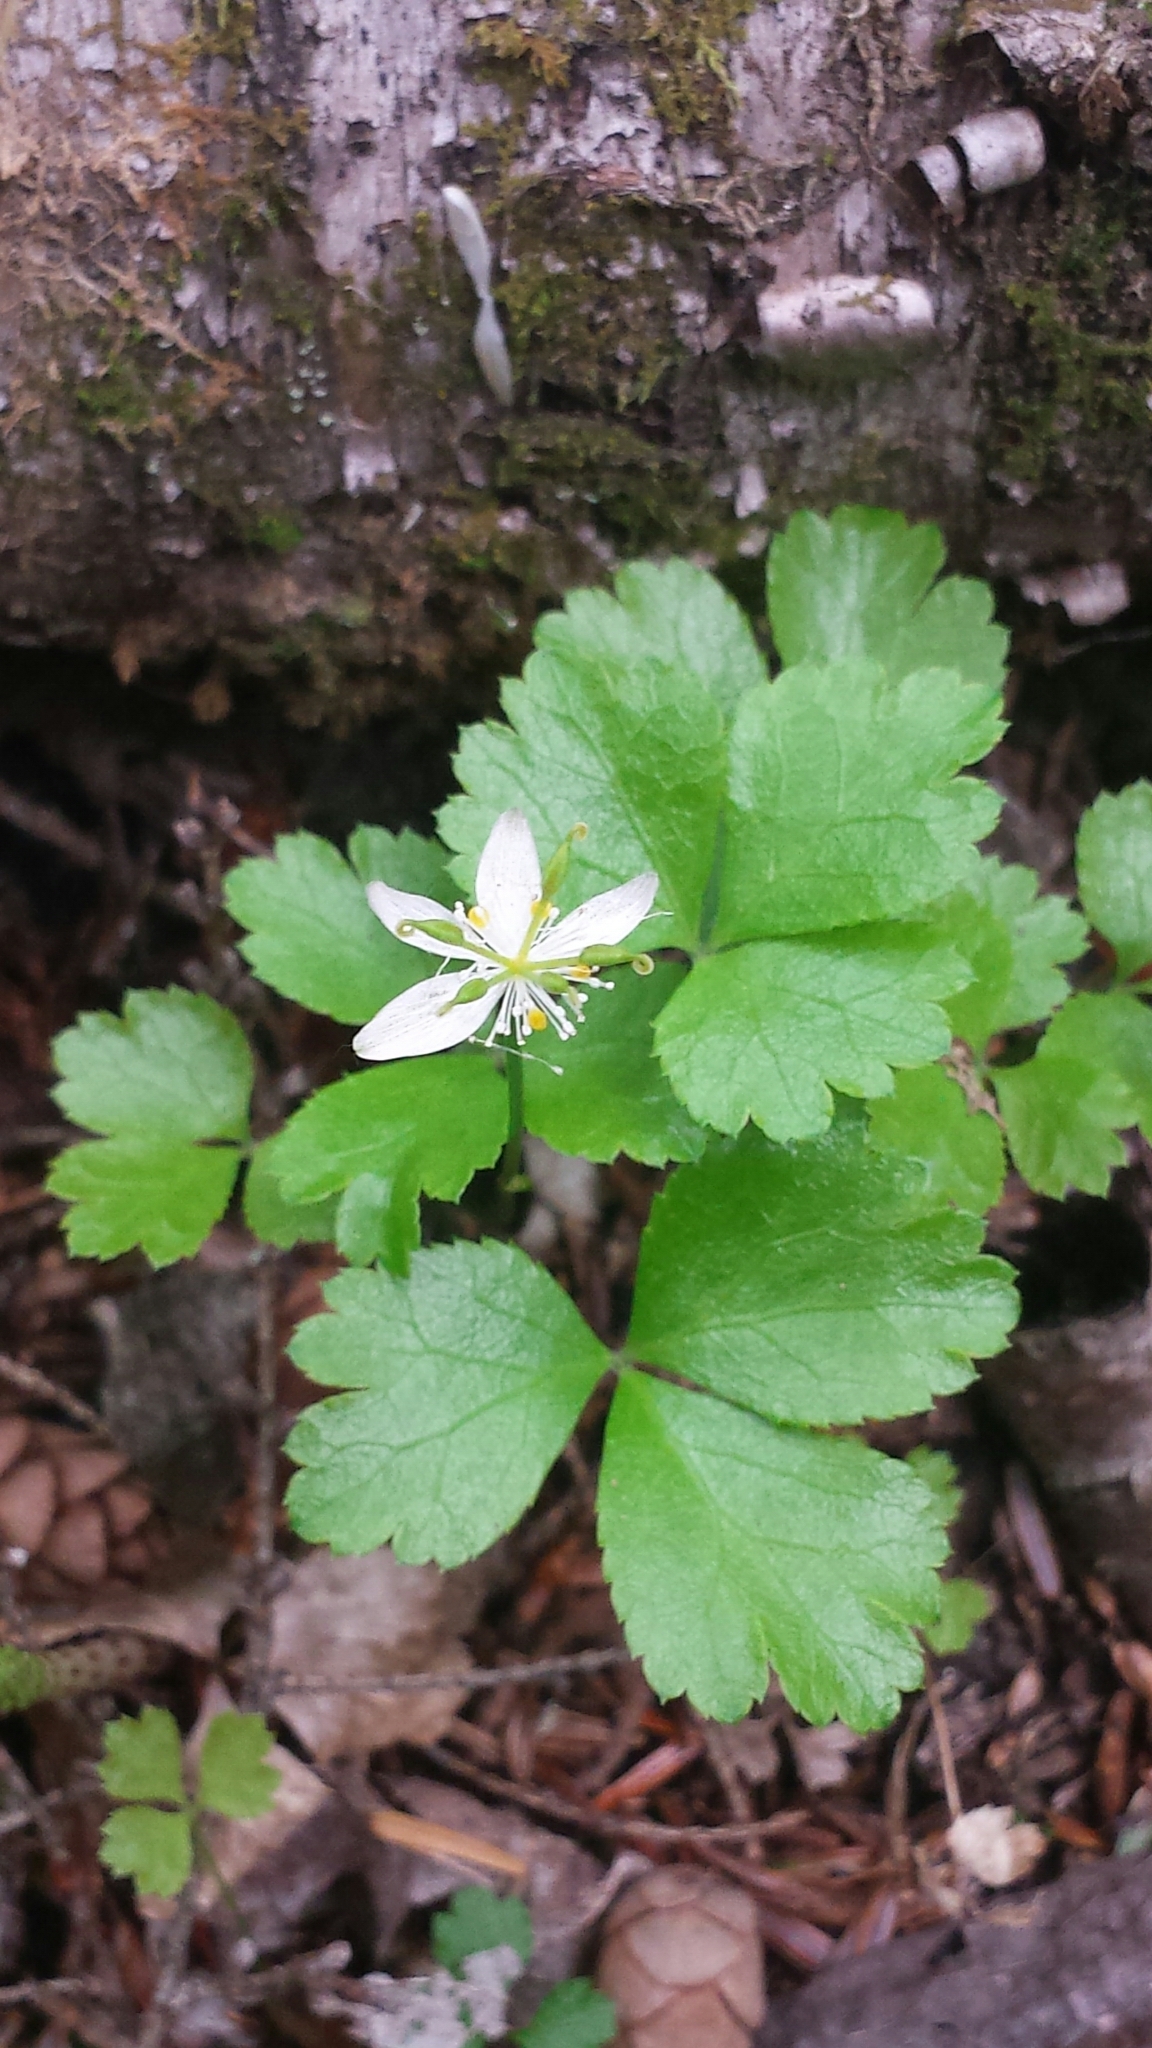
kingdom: Plantae
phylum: Tracheophyta
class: Magnoliopsida
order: Ranunculales
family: Ranunculaceae
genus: Coptis
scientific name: Coptis trifolia
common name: Canker-root
